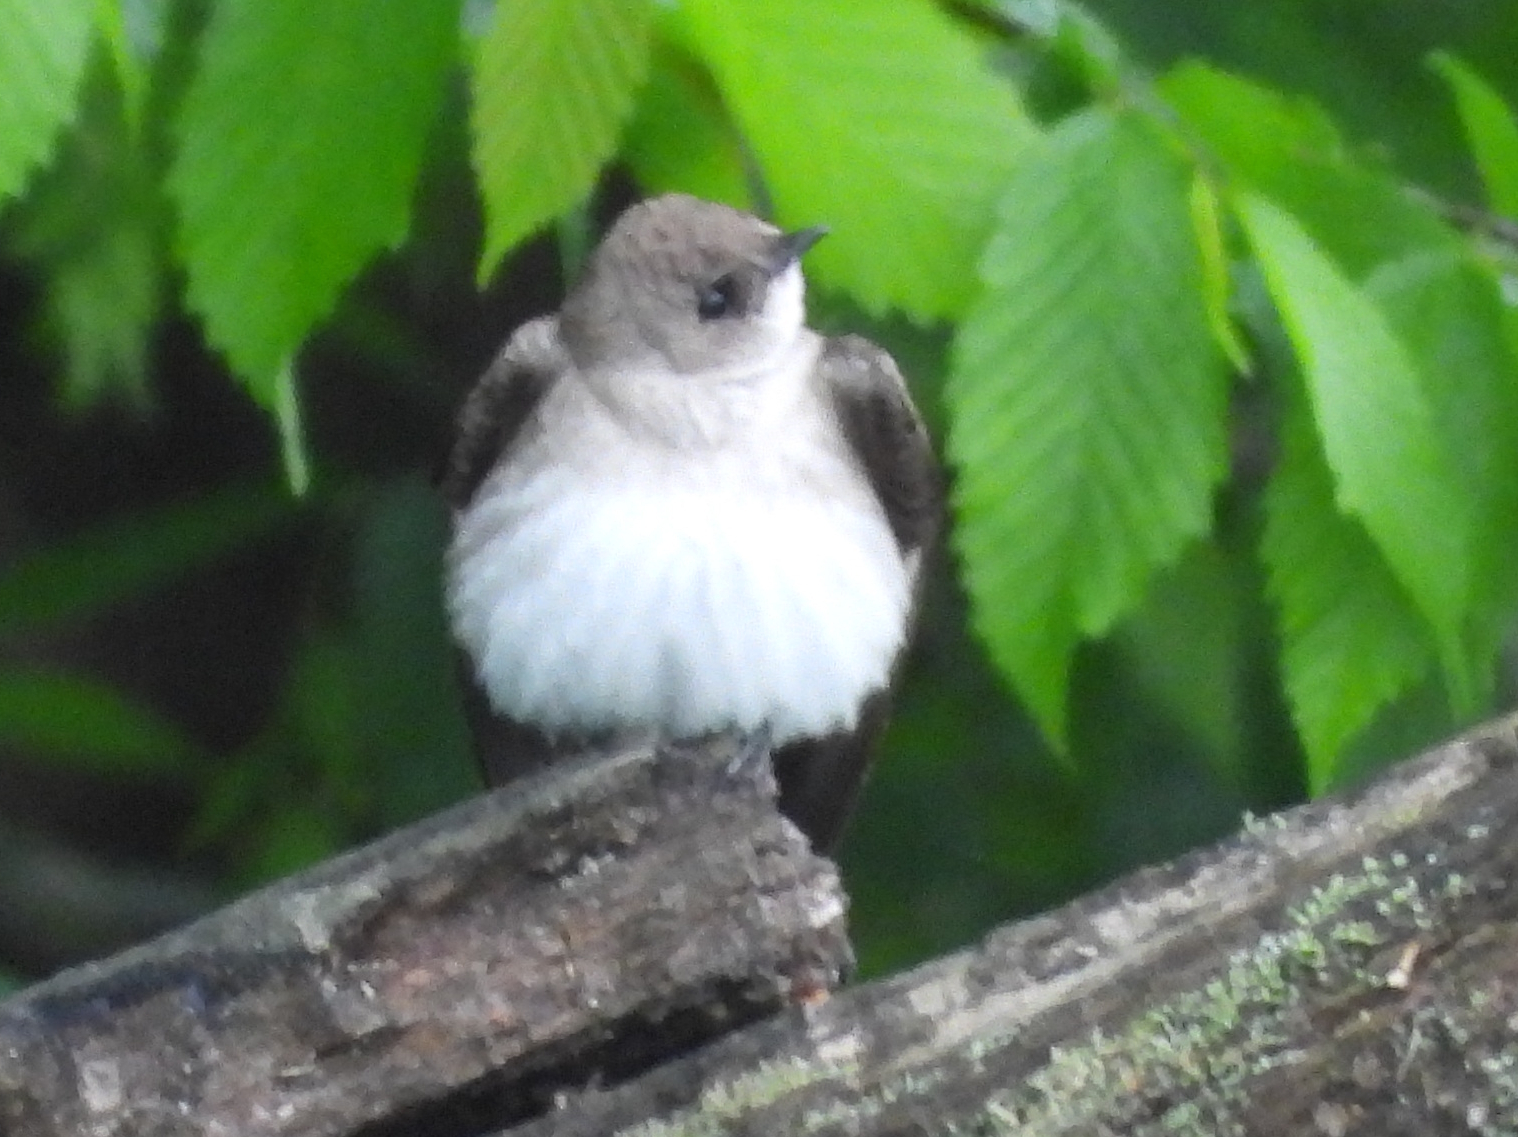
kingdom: Animalia
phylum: Chordata
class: Aves
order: Passeriformes
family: Hirundinidae
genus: Stelgidopteryx
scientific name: Stelgidopteryx serripennis
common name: Northern rough-winged swallow
